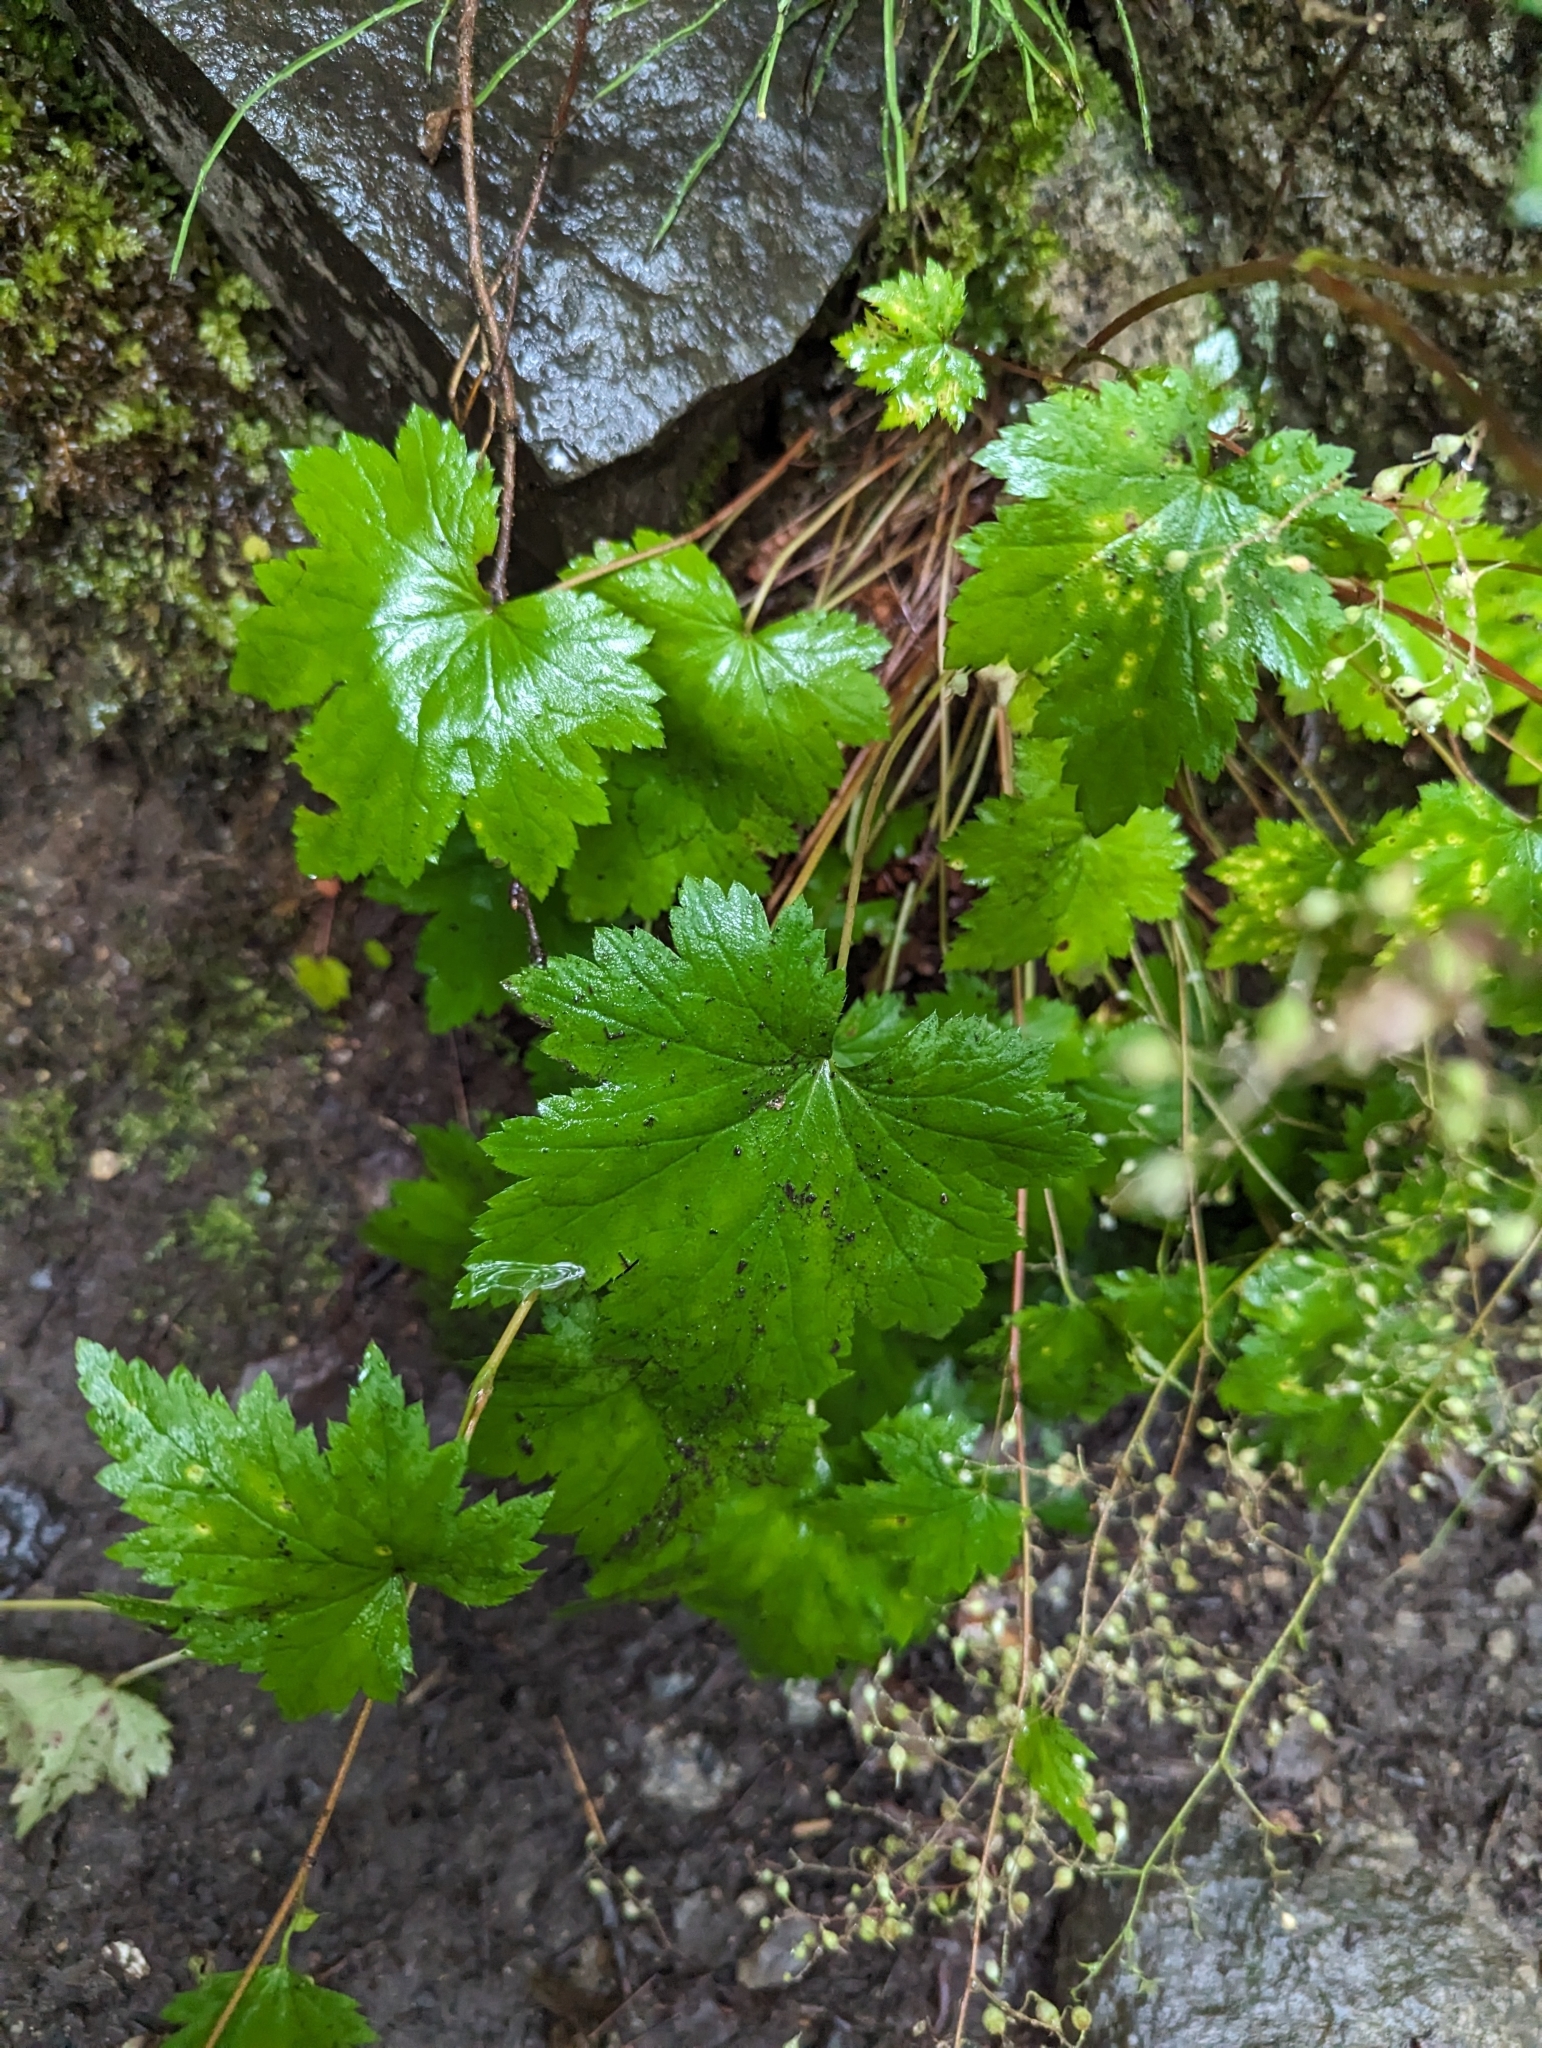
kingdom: Plantae
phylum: Tracheophyta
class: Magnoliopsida
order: Saxifragales
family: Saxifragaceae
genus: Heuchera
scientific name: Heuchera glabra
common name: Alpine alumroot
